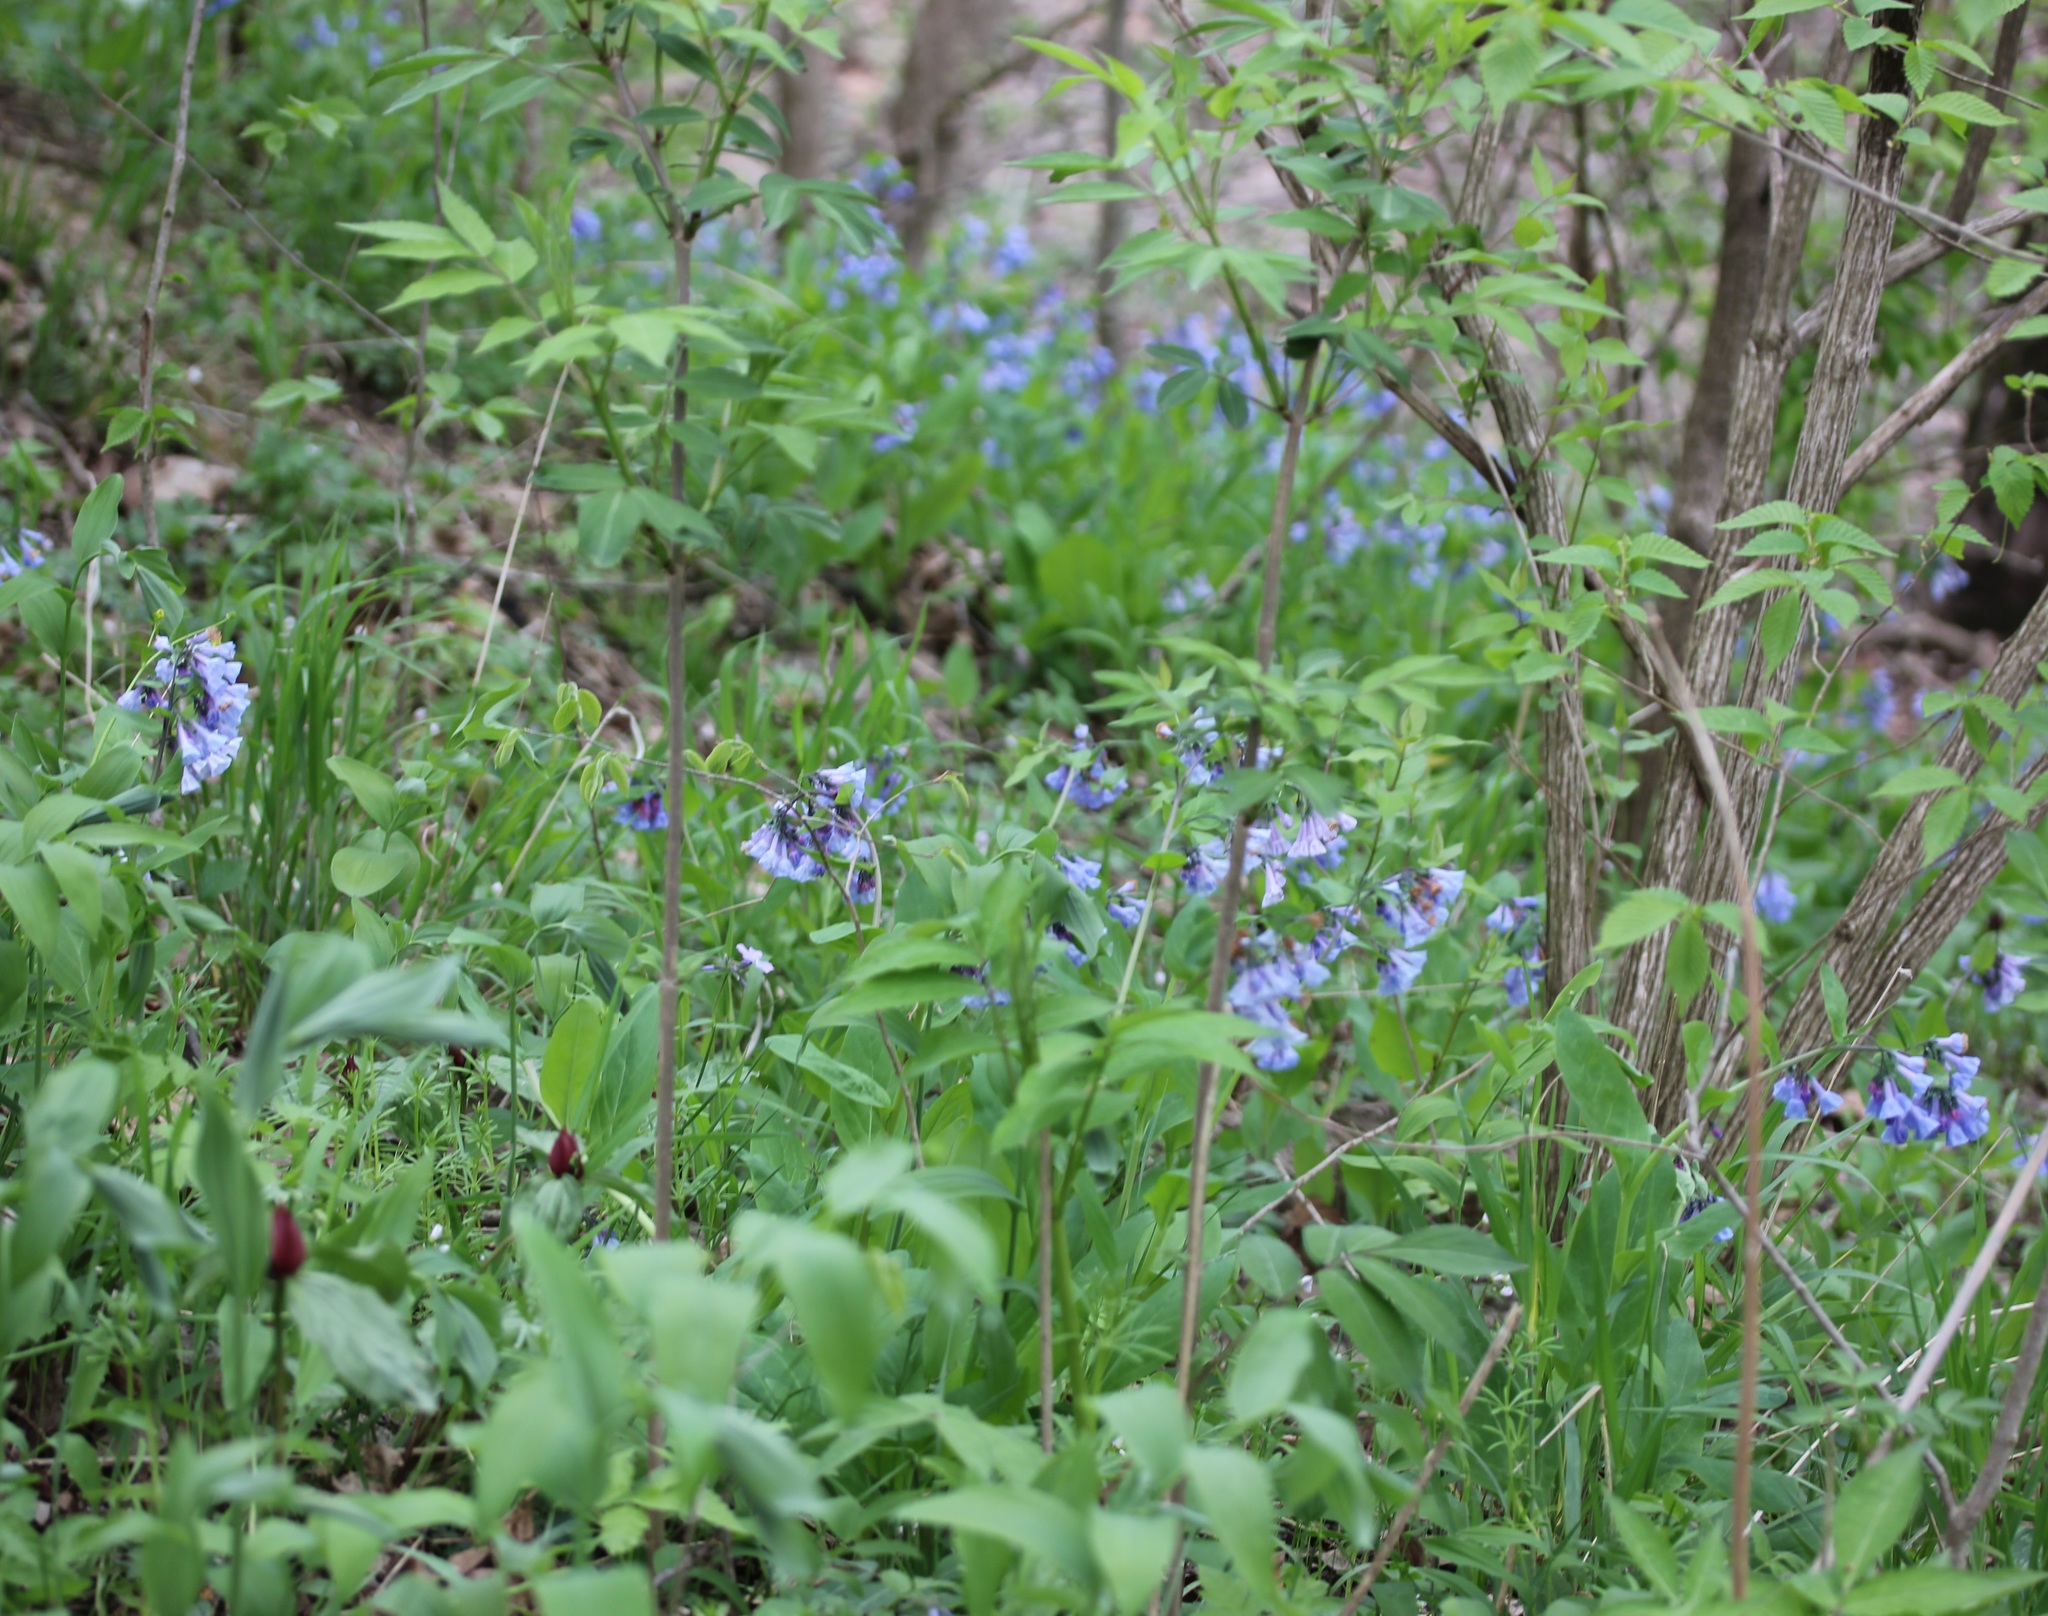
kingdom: Plantae
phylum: Tracheophyta
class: Magnoliopsida
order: Boraginales
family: Boraginaceae
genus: Mertensia
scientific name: Mertensia virginica
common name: Virginia bluebells
